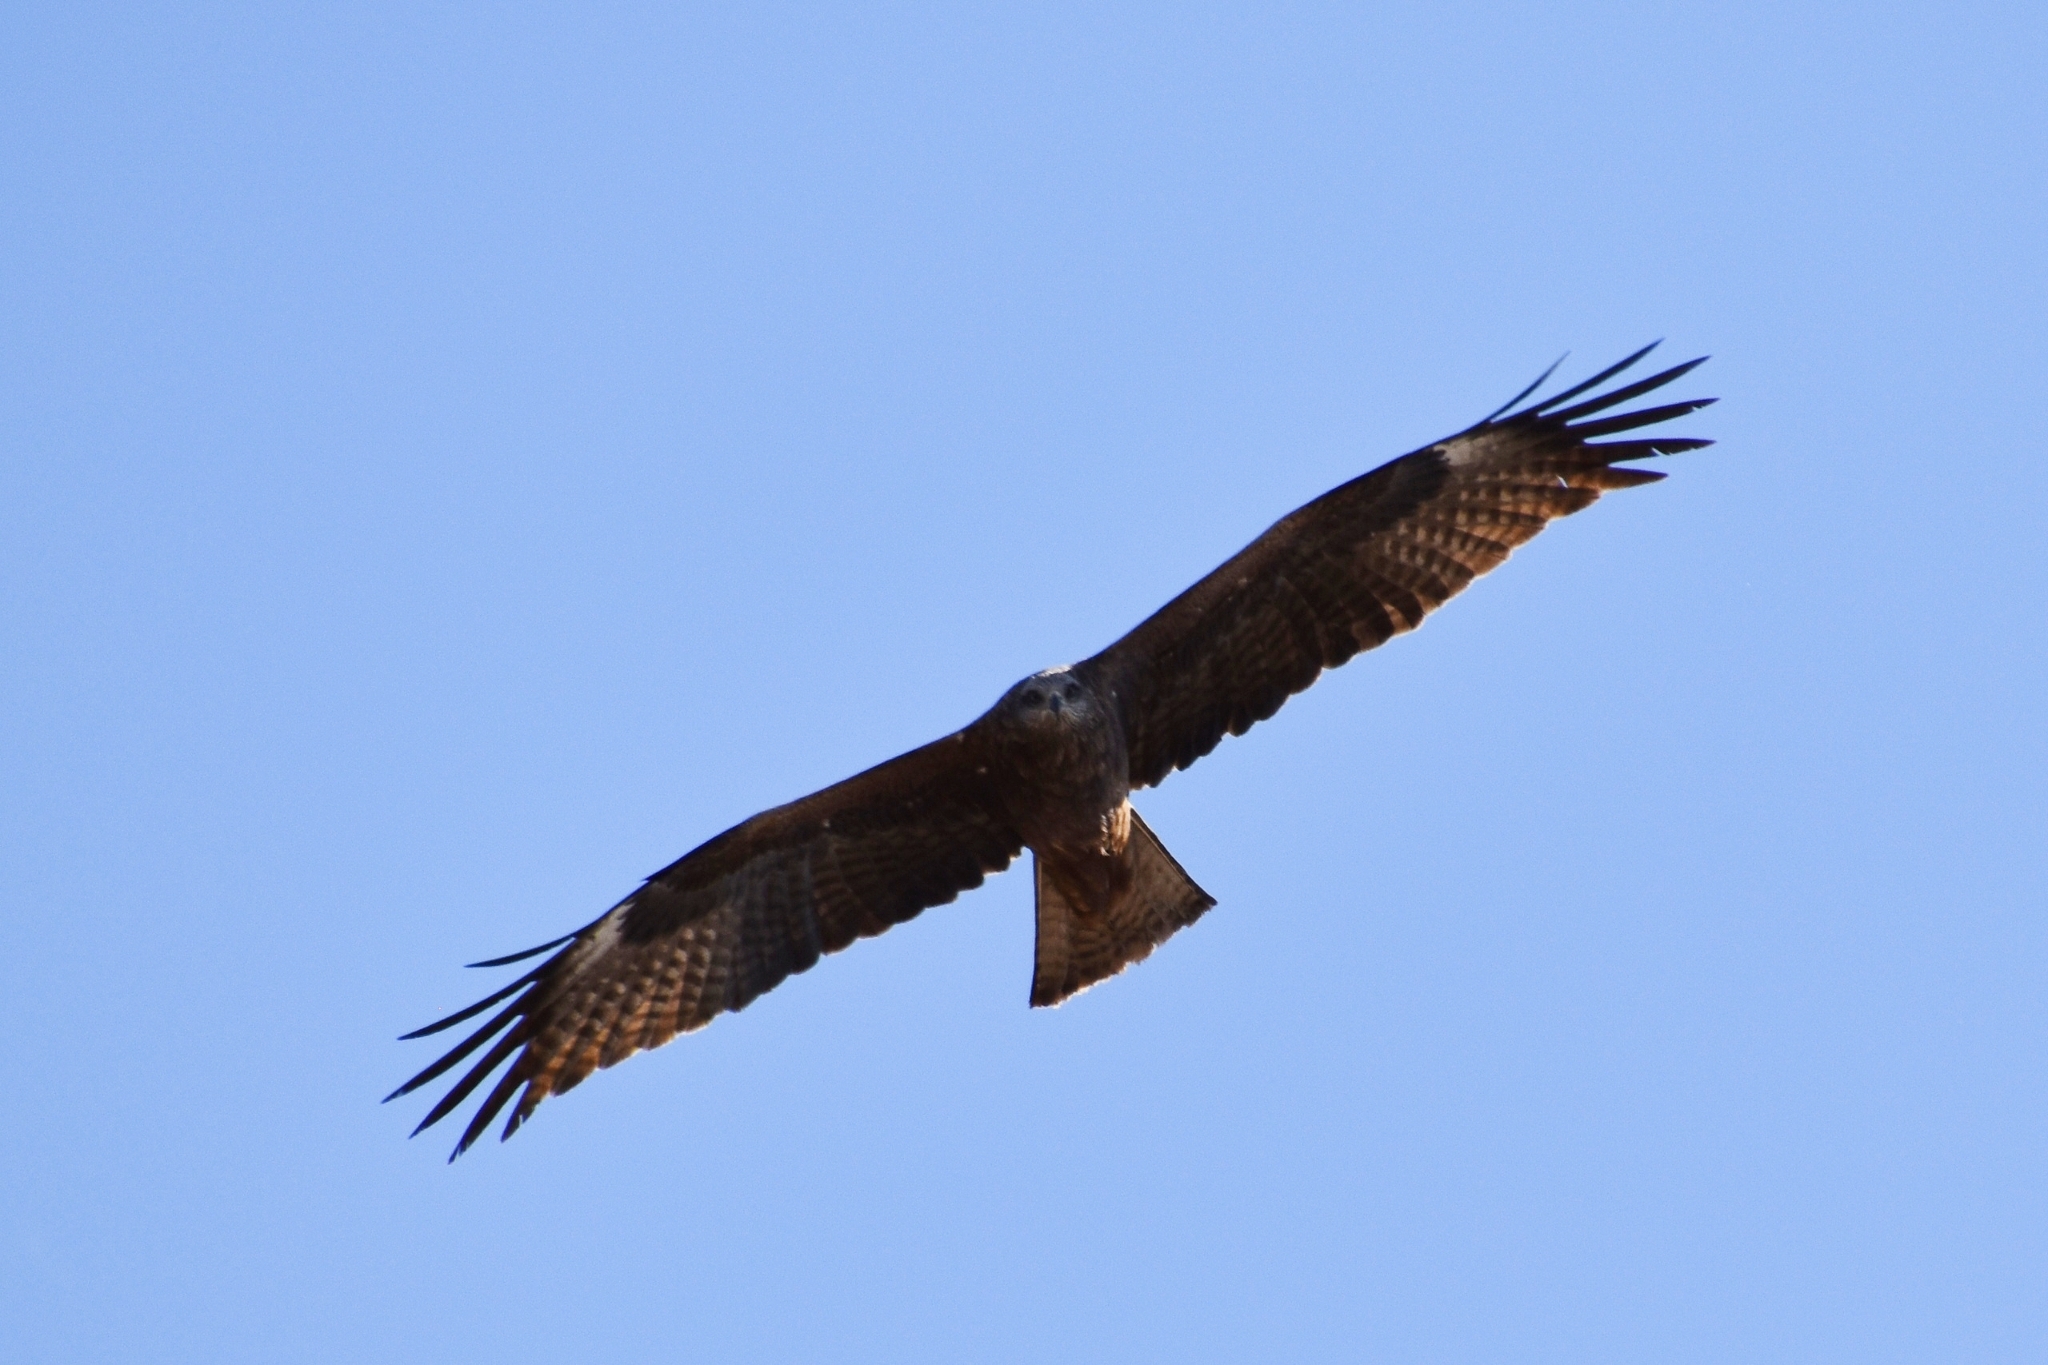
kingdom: Animalia
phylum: Chordata
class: Aves
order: Accipitriformes
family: Accipitridae
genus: Milvus
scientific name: Milvus migrans
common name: Black kite
